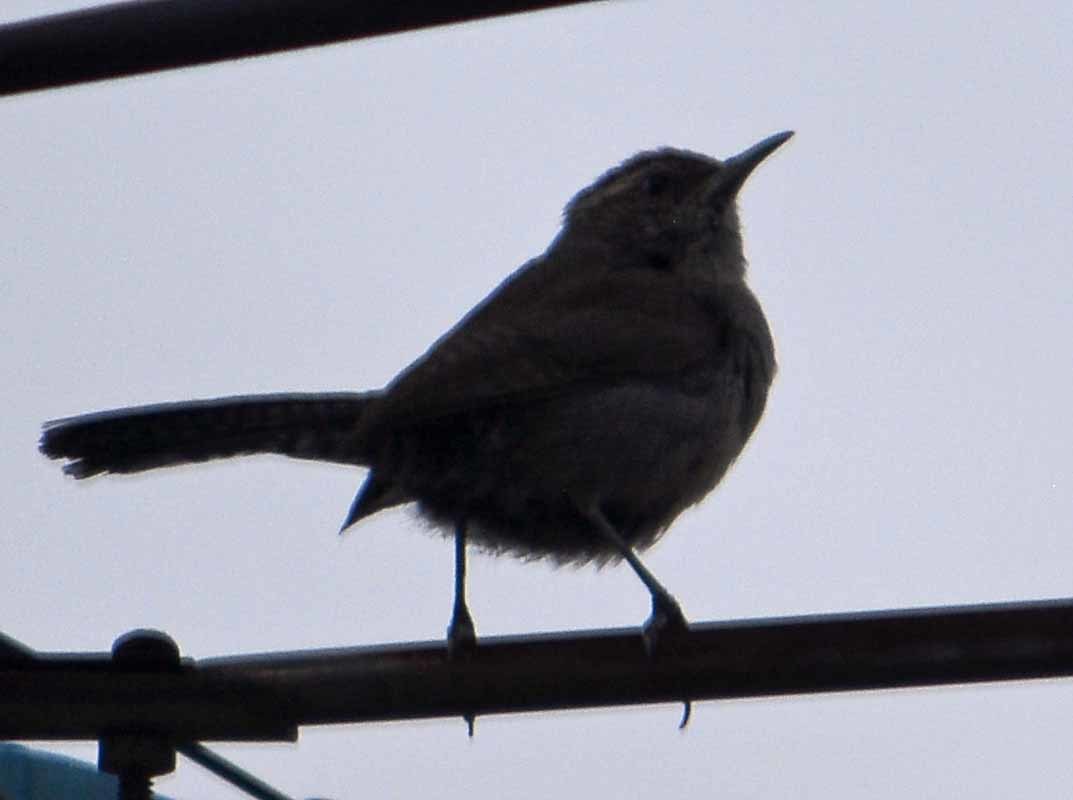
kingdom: Animalia
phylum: Chordata
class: Aves
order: Passeriformes
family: Troglodytidae
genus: Thryomanes
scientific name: Thryomanes bewickii
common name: Bewick's wren
